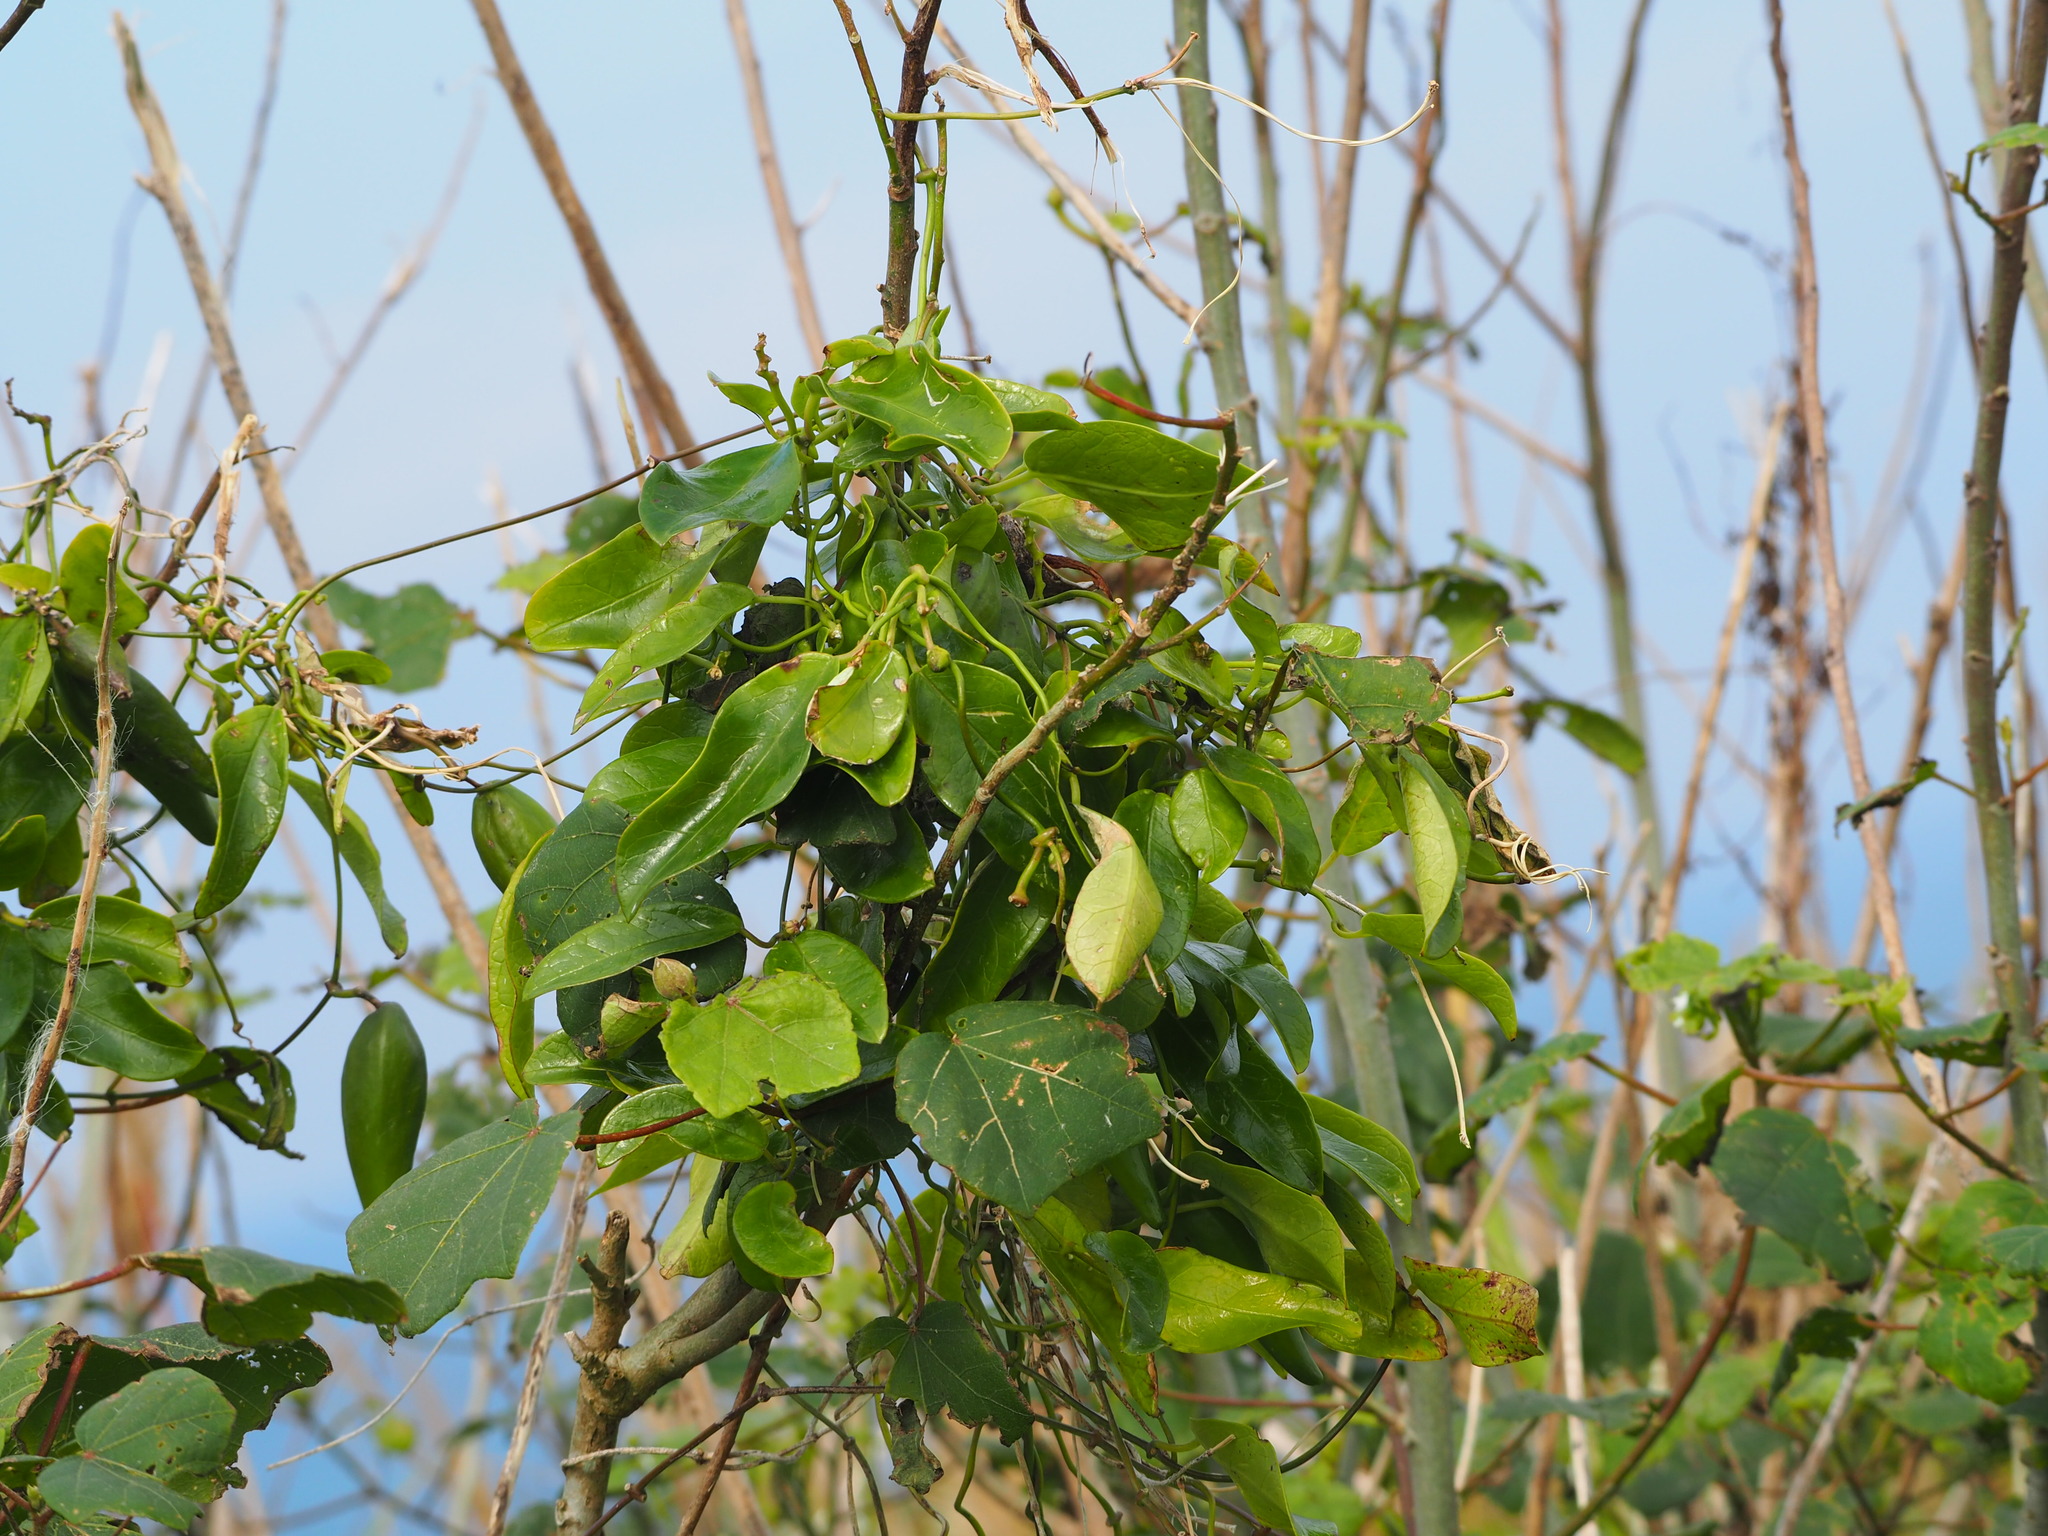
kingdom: Plantae
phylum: Tracheophyta
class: Magnoliopsida
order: Gentianales
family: Apocynaceae
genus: Gymnema
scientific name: Gymnema sylvestre
